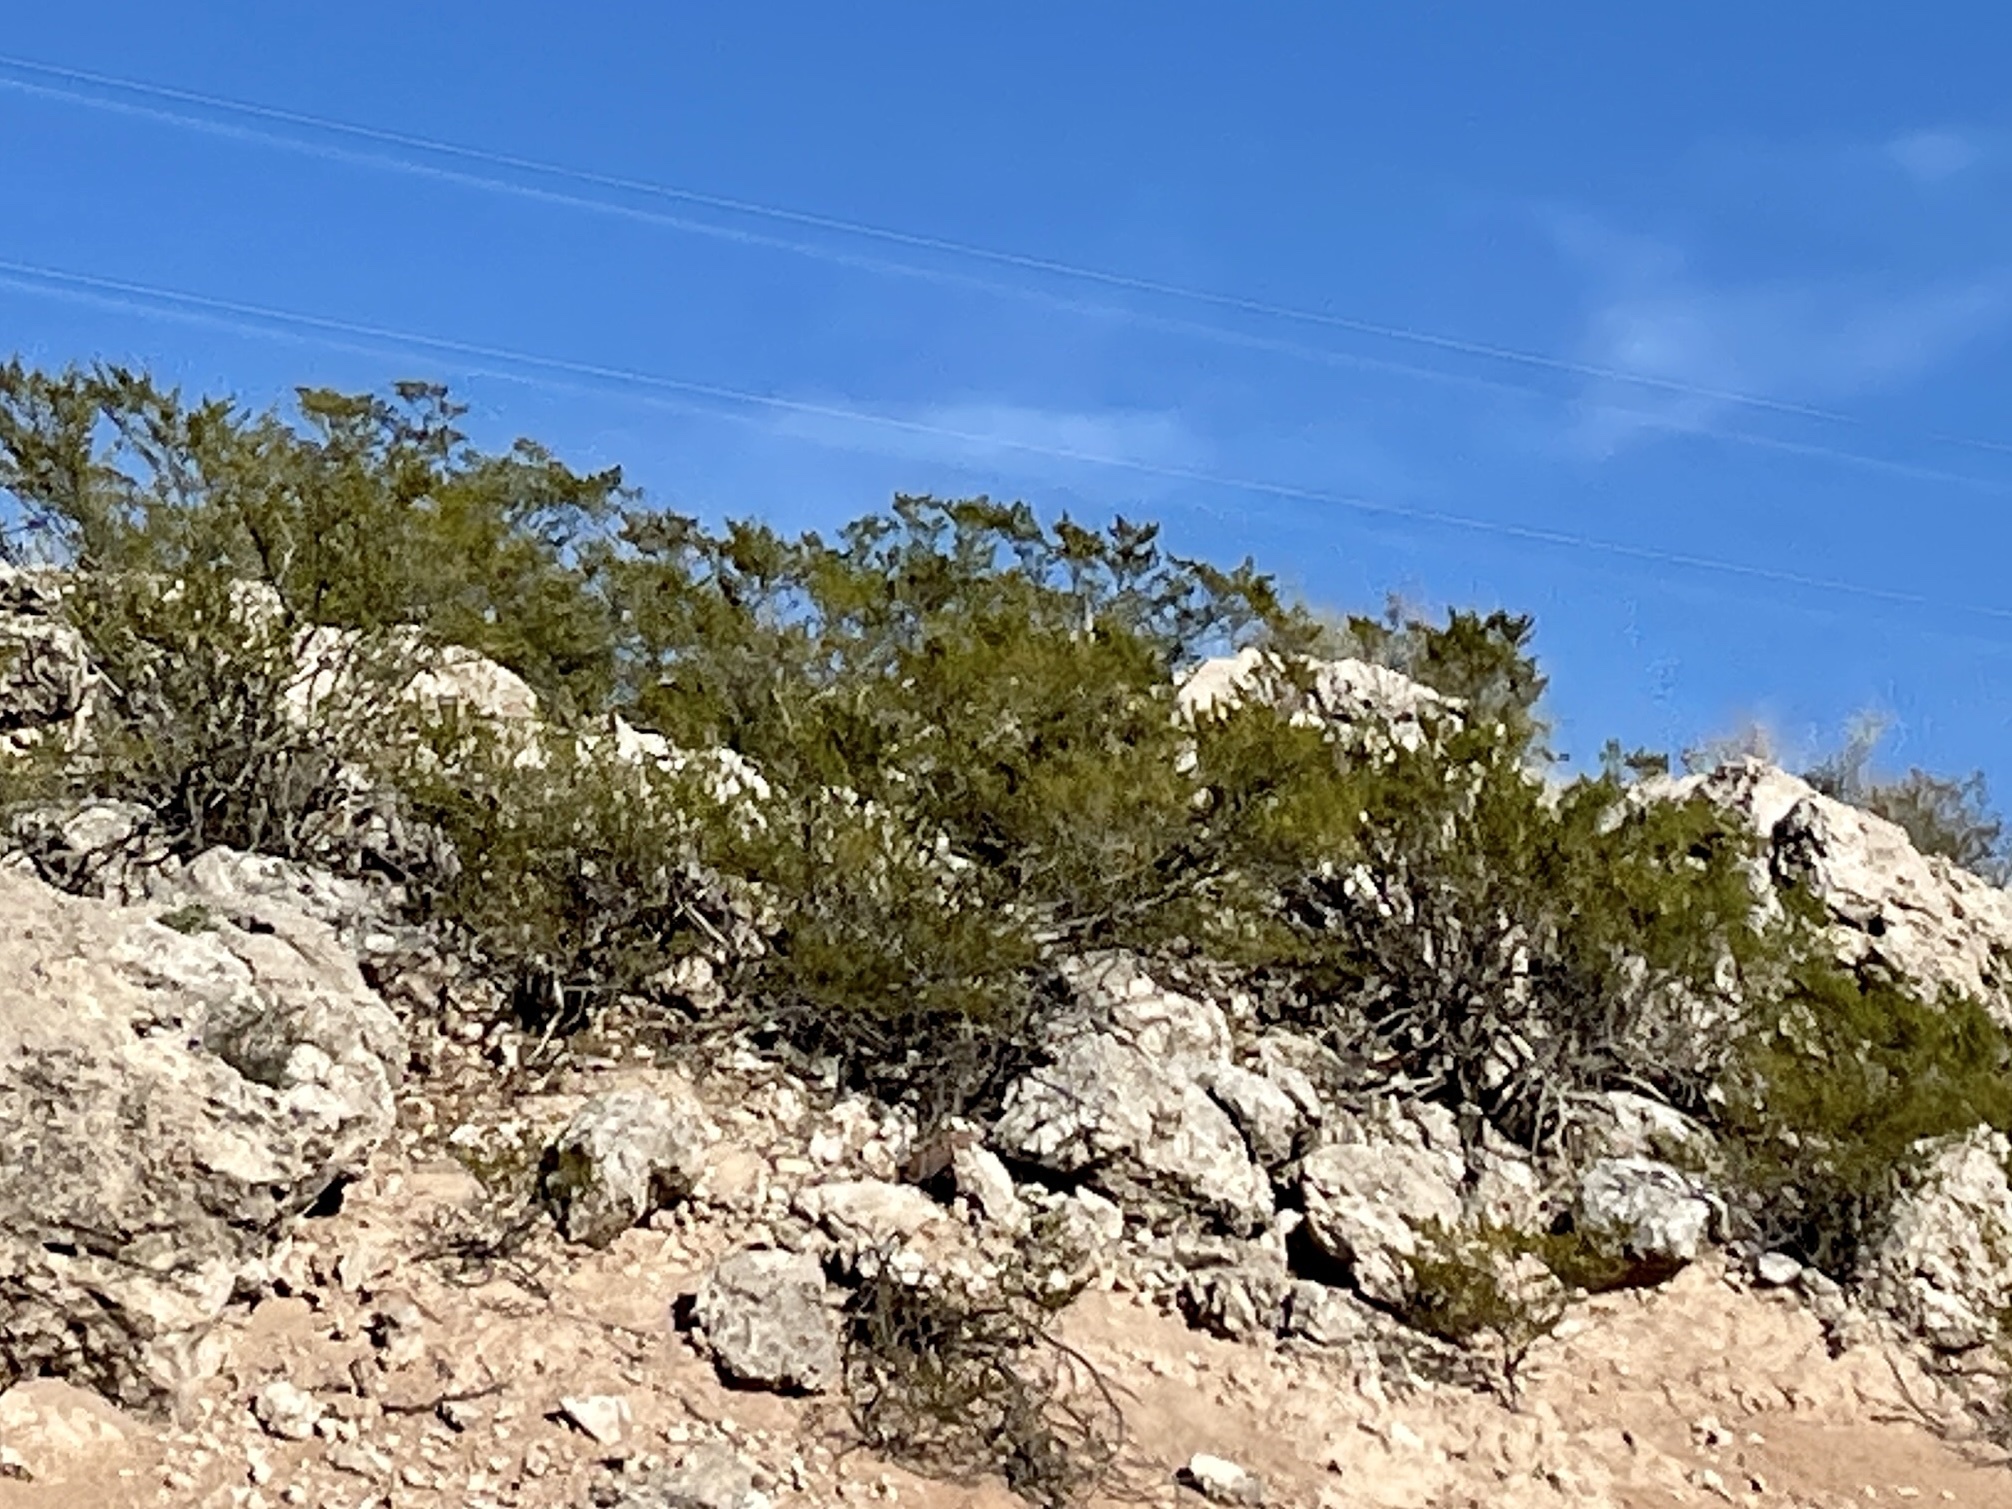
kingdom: Plantae
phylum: Tracheophyta
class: Magnoliopsida
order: Zygophyllales
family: Zygophyllaceae
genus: Larrea
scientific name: Larrea tridentata
